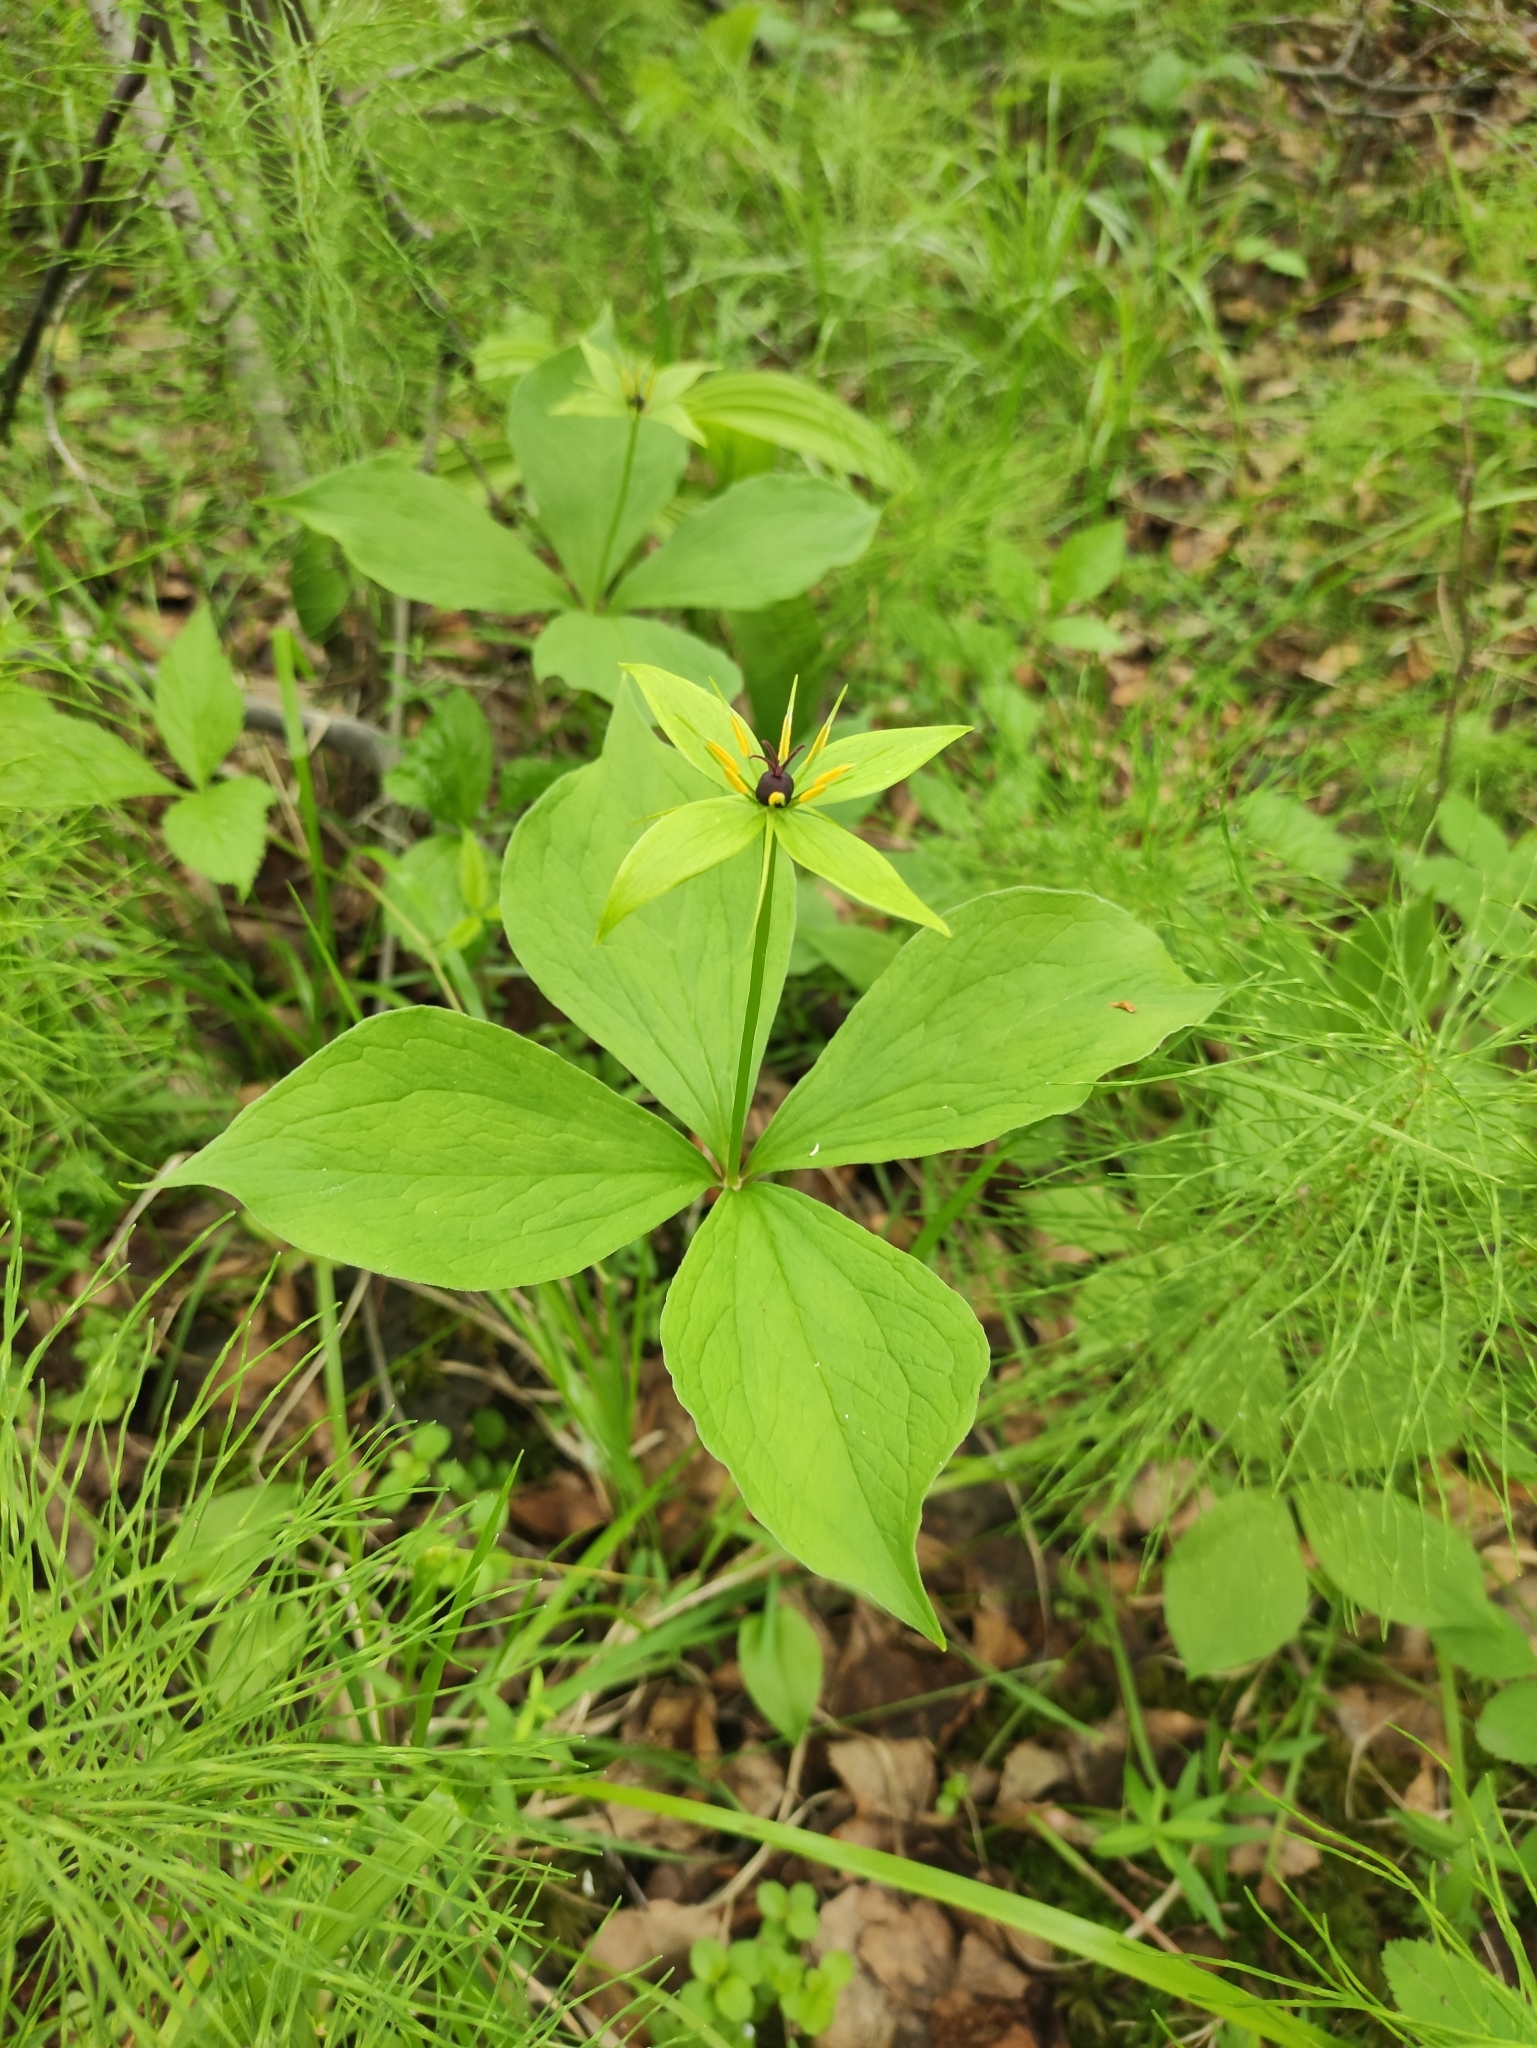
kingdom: Plantae
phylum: Tracheophyta
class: Liliopsida
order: Liliales
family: Melanthiaceae
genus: Paris
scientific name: Paris quadrifolia
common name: Herb-paris
